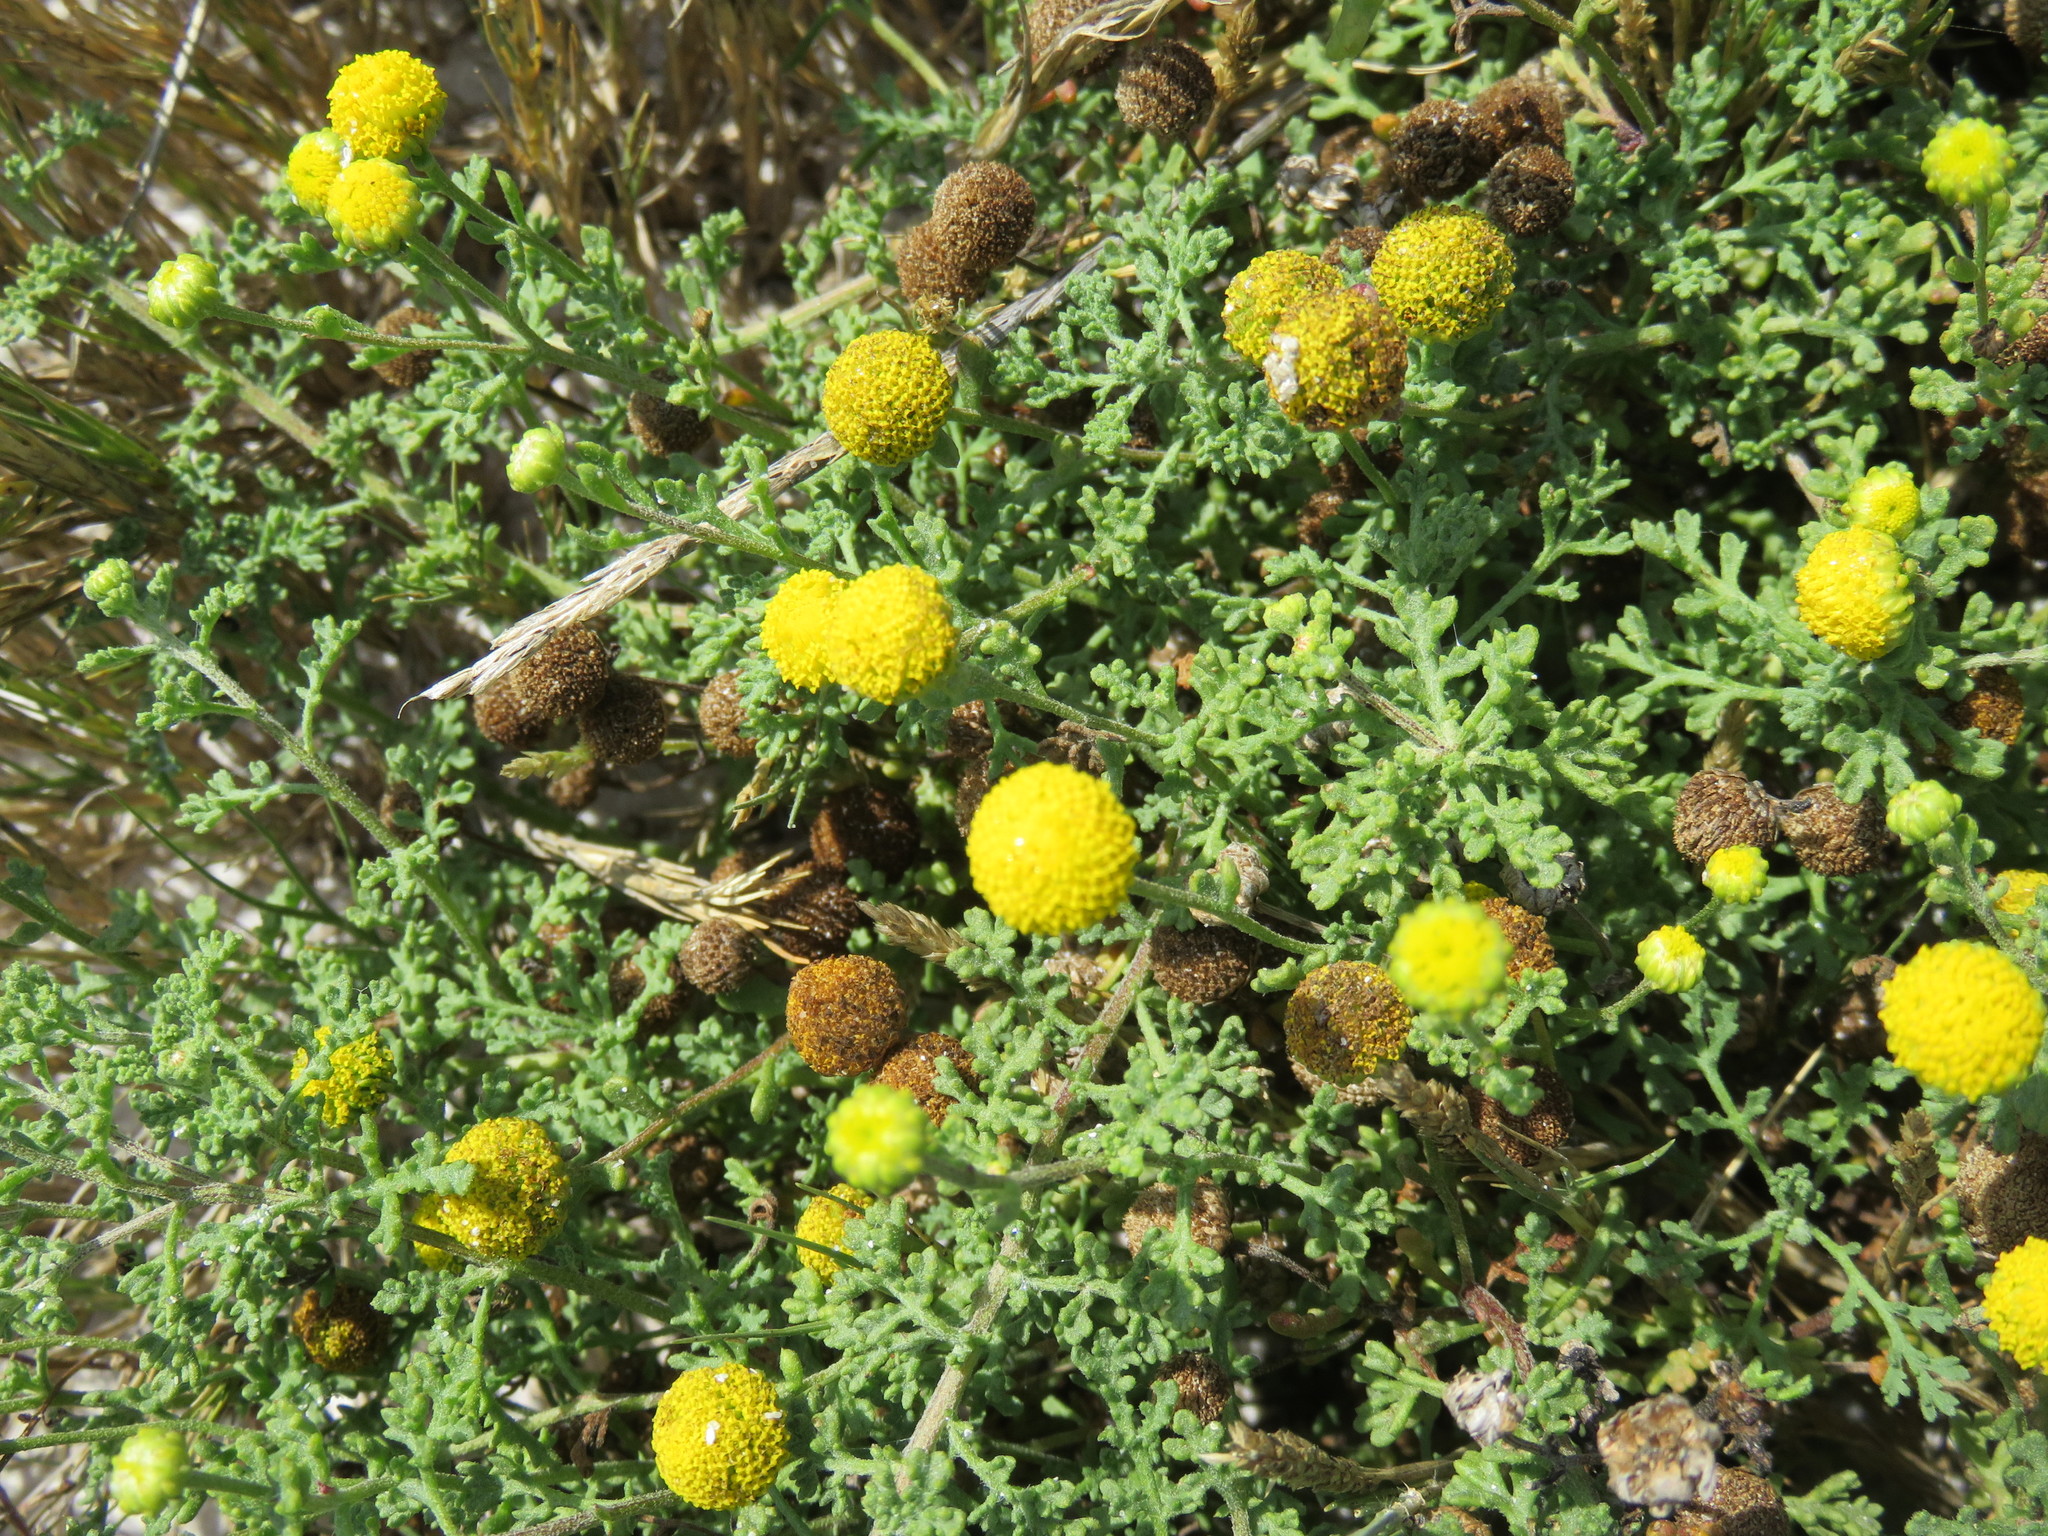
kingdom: Plantae
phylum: Tracheophyta
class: Magnoliopsida
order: Asterales
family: Asteraceae
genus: Oncosiphon
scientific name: Oncosiphon sabulosus
